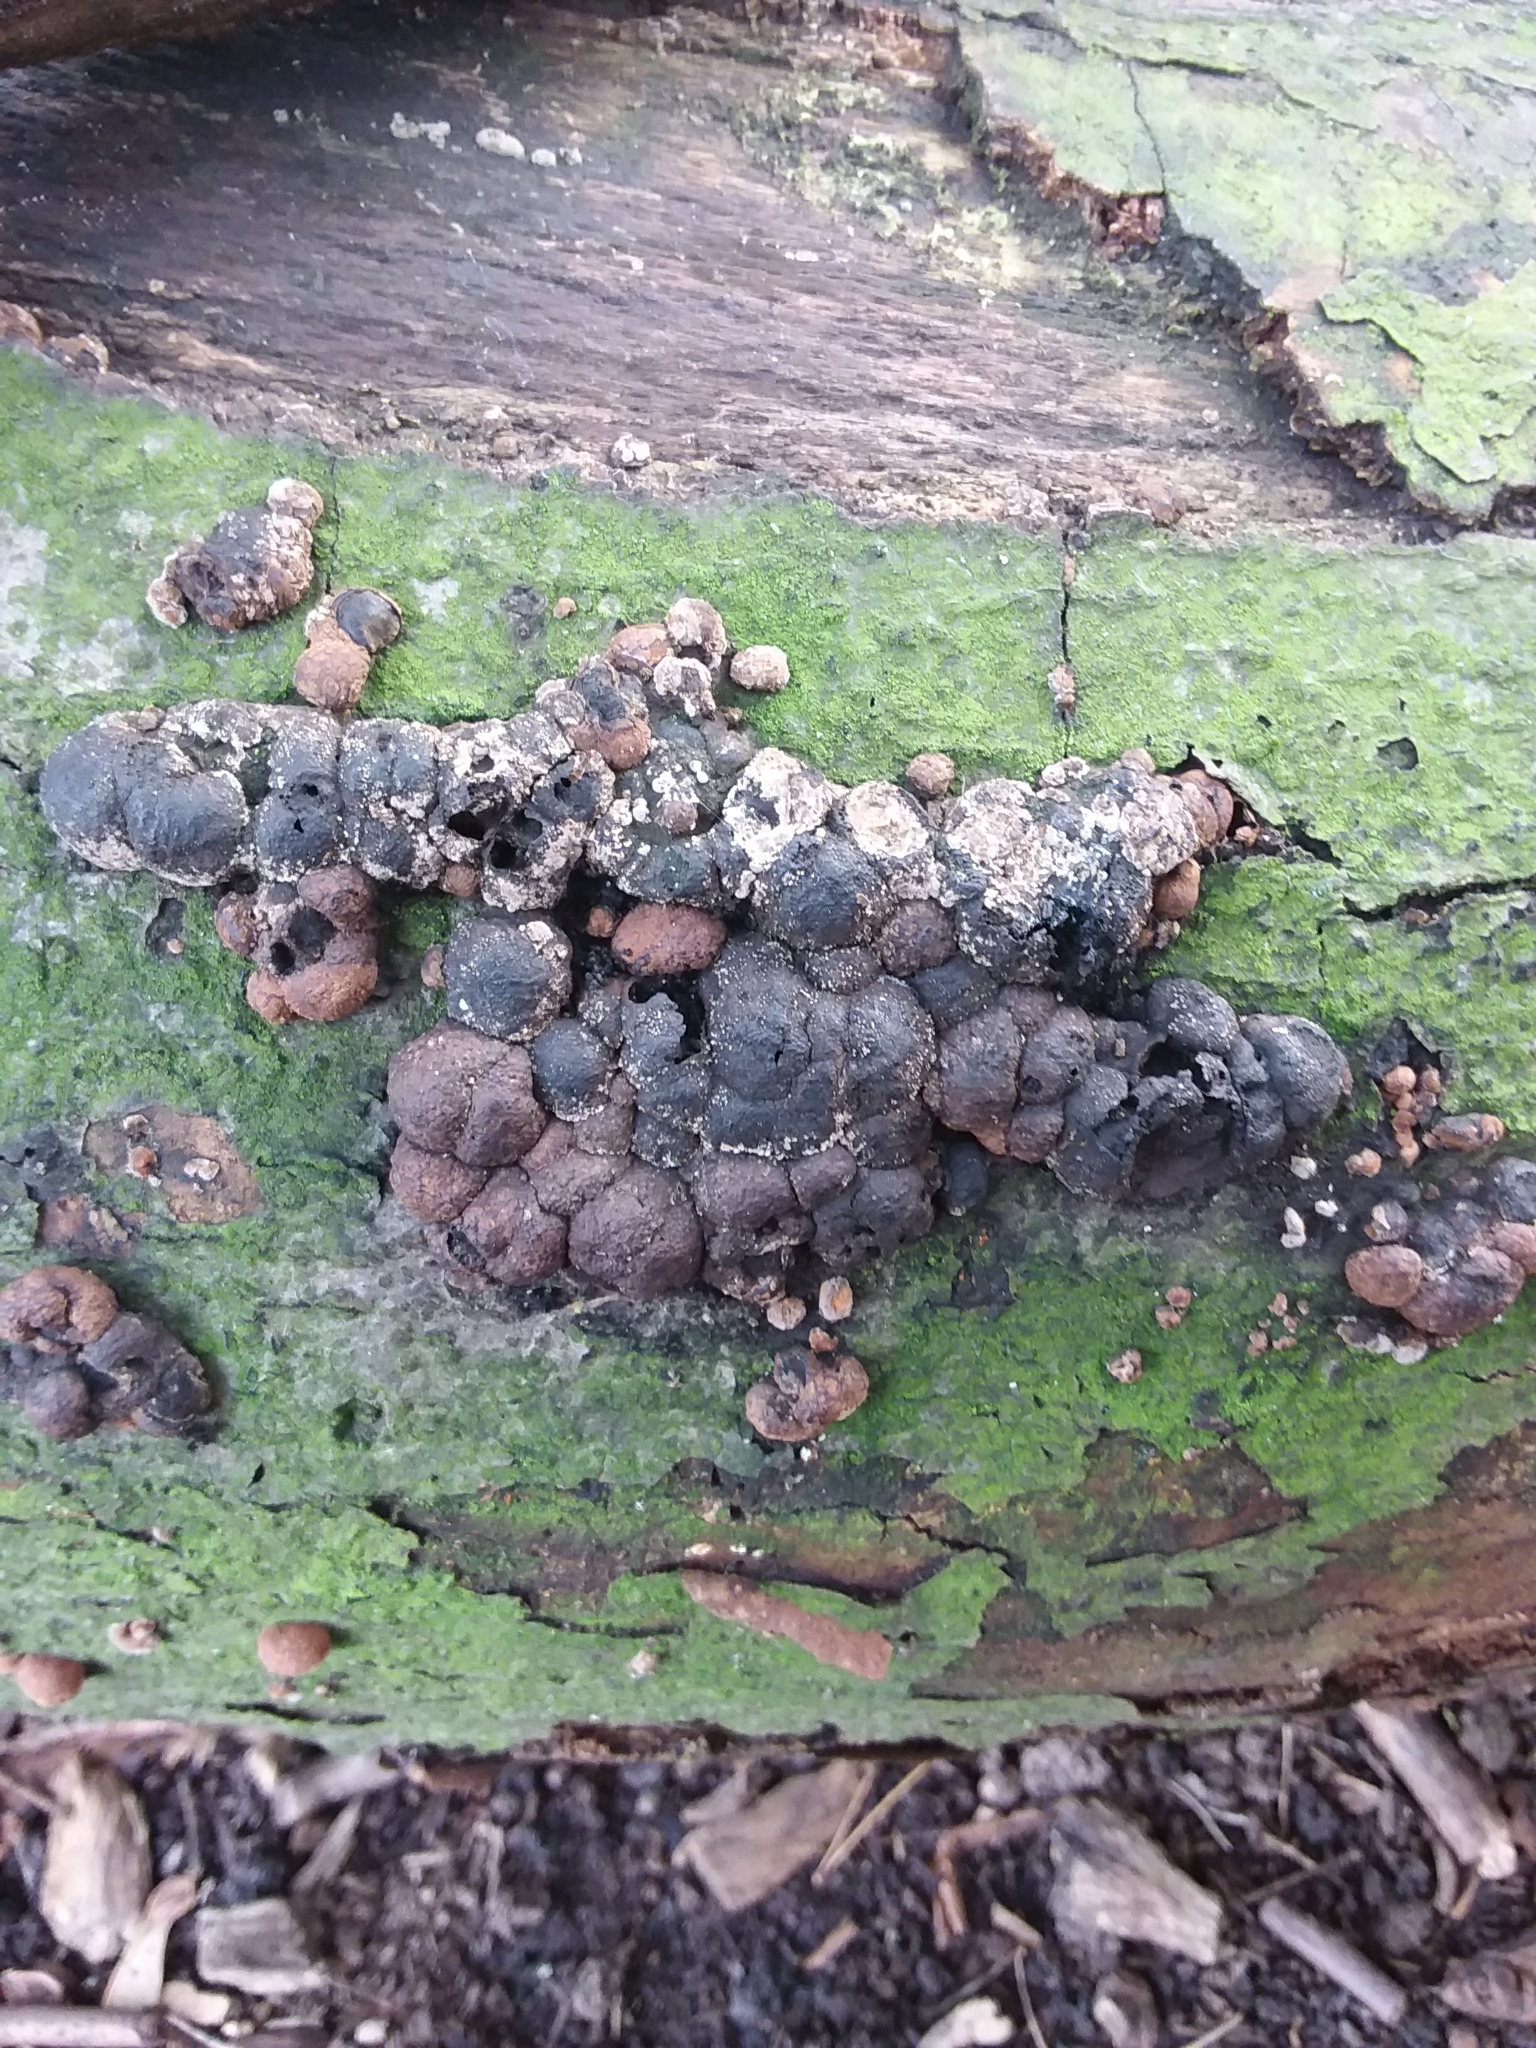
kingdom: Fungi
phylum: Ascomycota
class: Sordariomycetes
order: Xylariales
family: Hypoxylaceae
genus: Hypoxylon
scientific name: Hypoxylon fragiforme
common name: Beech woodwart
